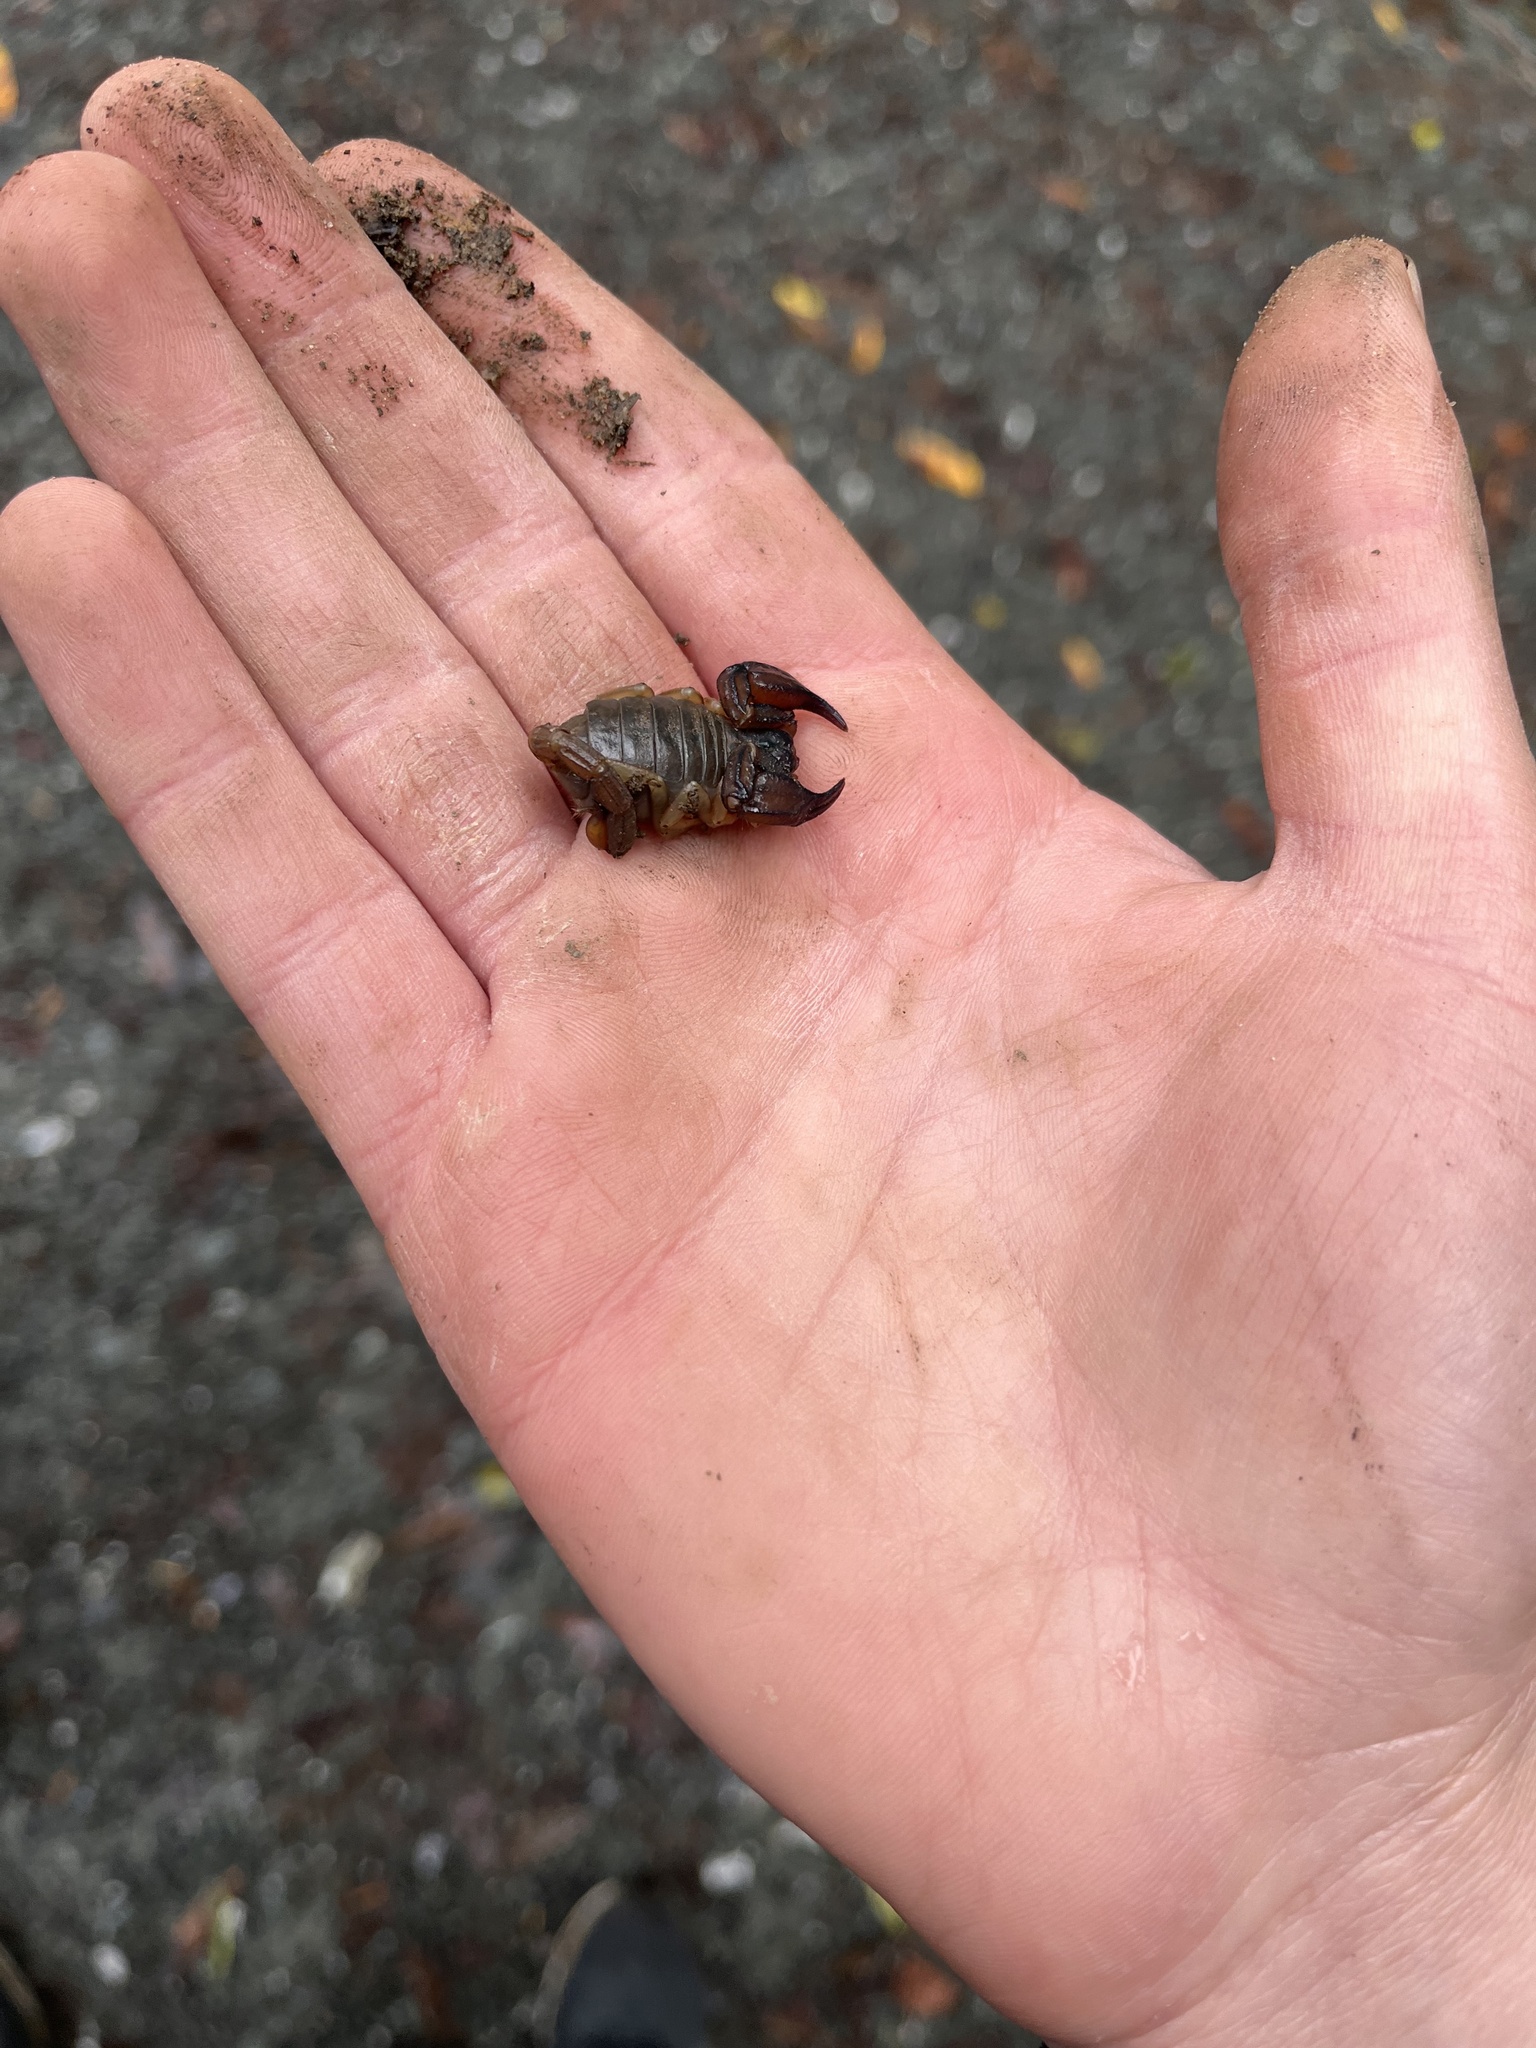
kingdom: Animalia
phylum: Arthropoda
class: Arachnida
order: Scorpiones
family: Chactidae
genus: Uroctonus
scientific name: Uroctonus mordax
